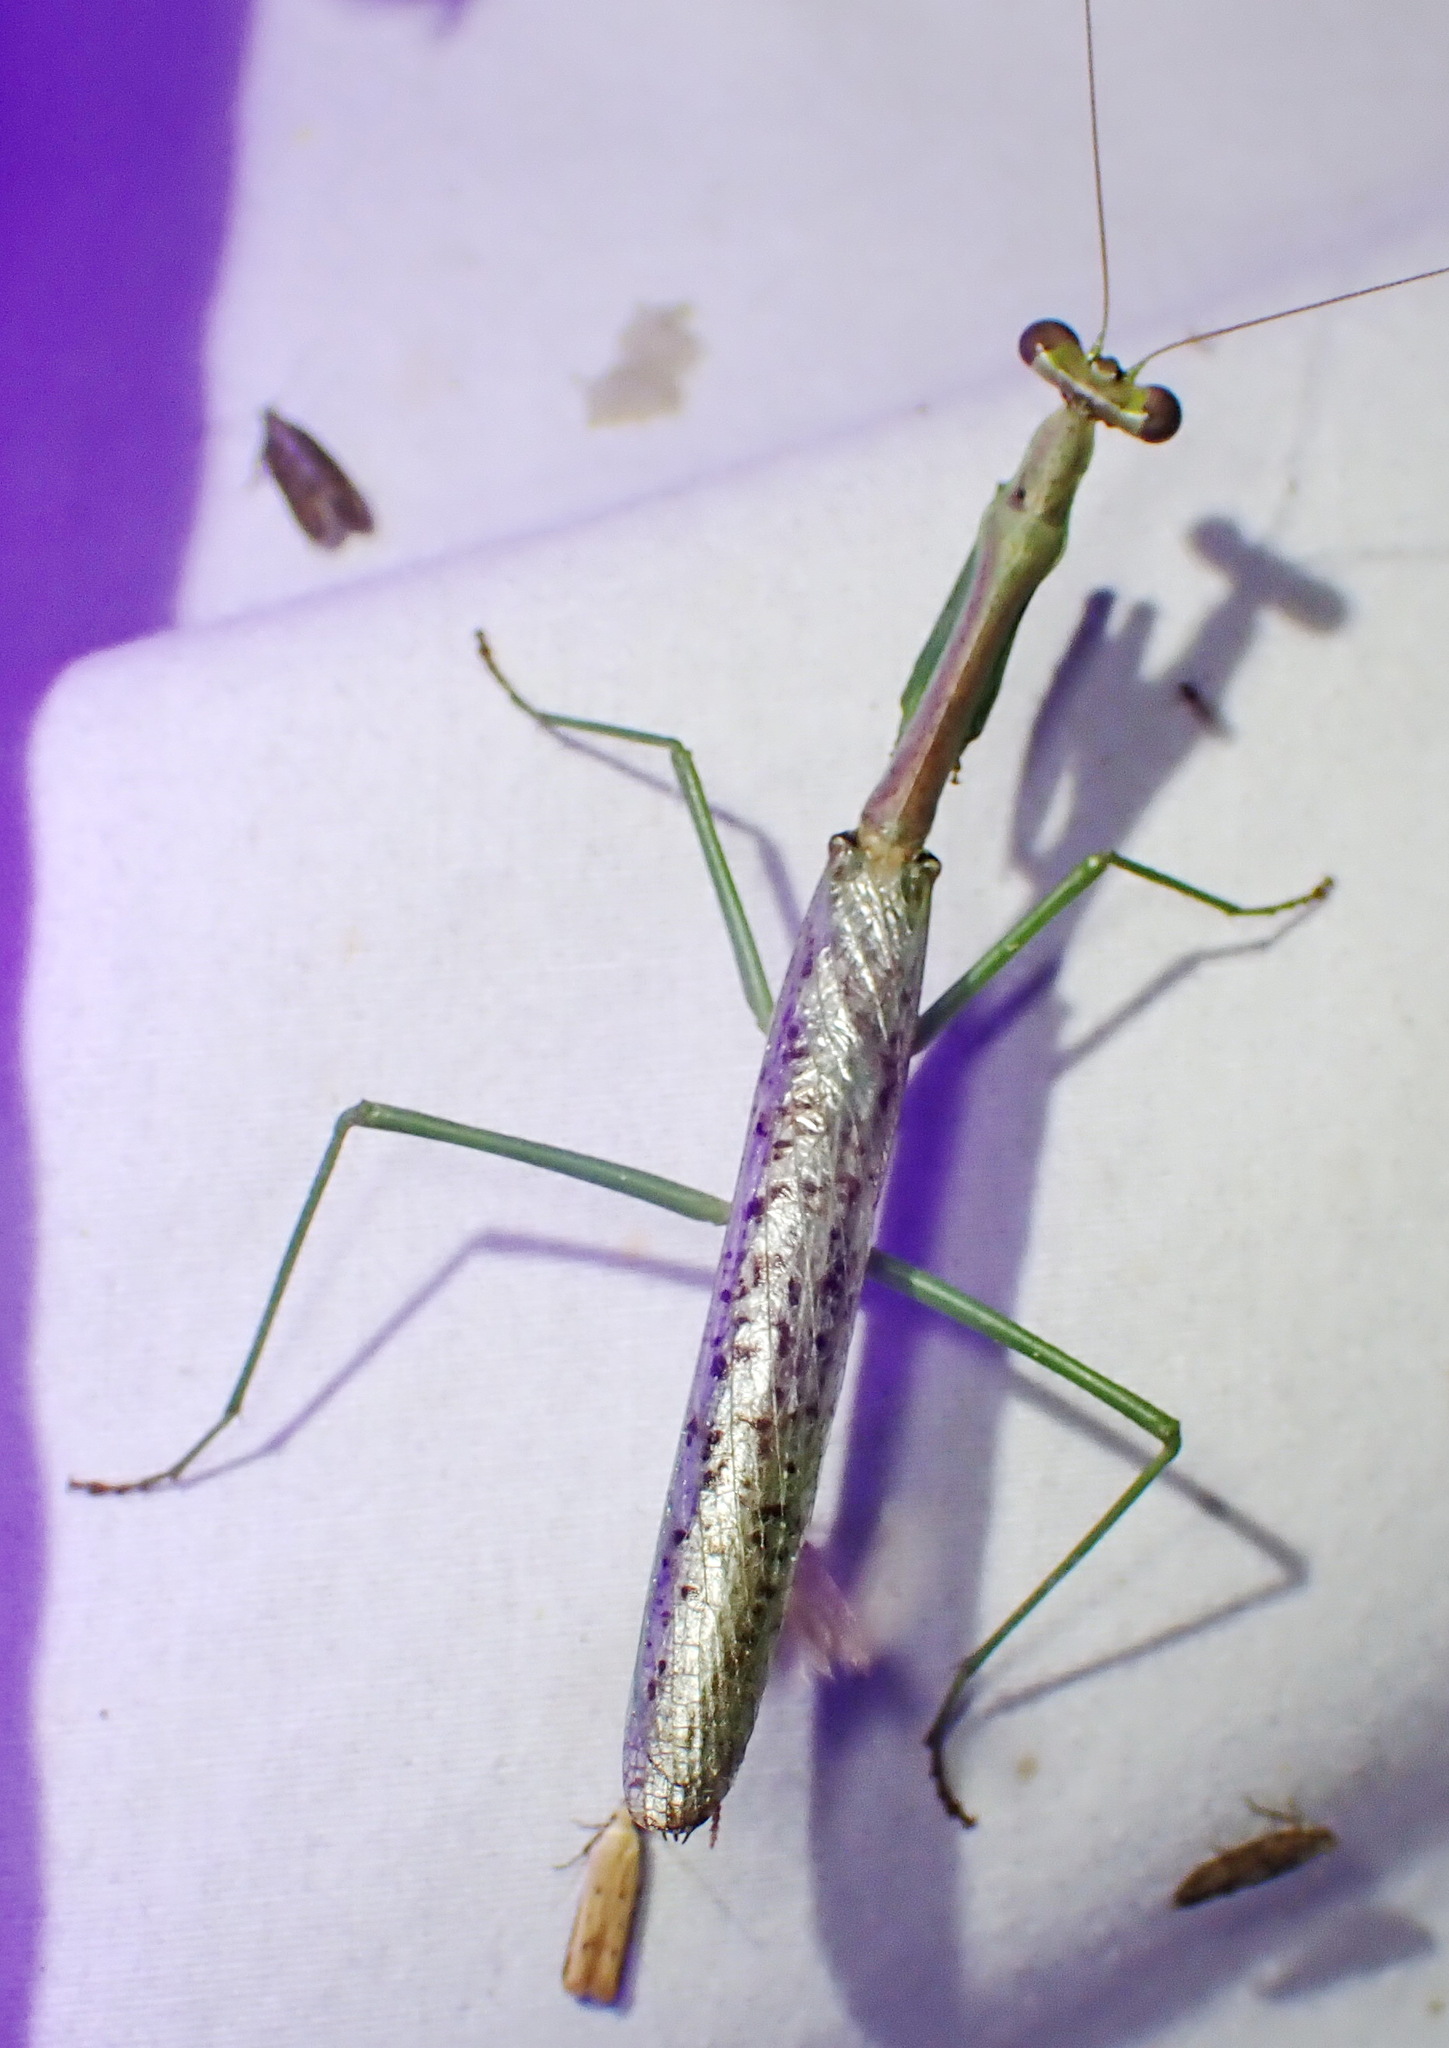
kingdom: Animalia
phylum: Arthropoda
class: Insecta
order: Mantodea
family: Mantidae
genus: Stagmomantis
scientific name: Stagmomantis resacae
